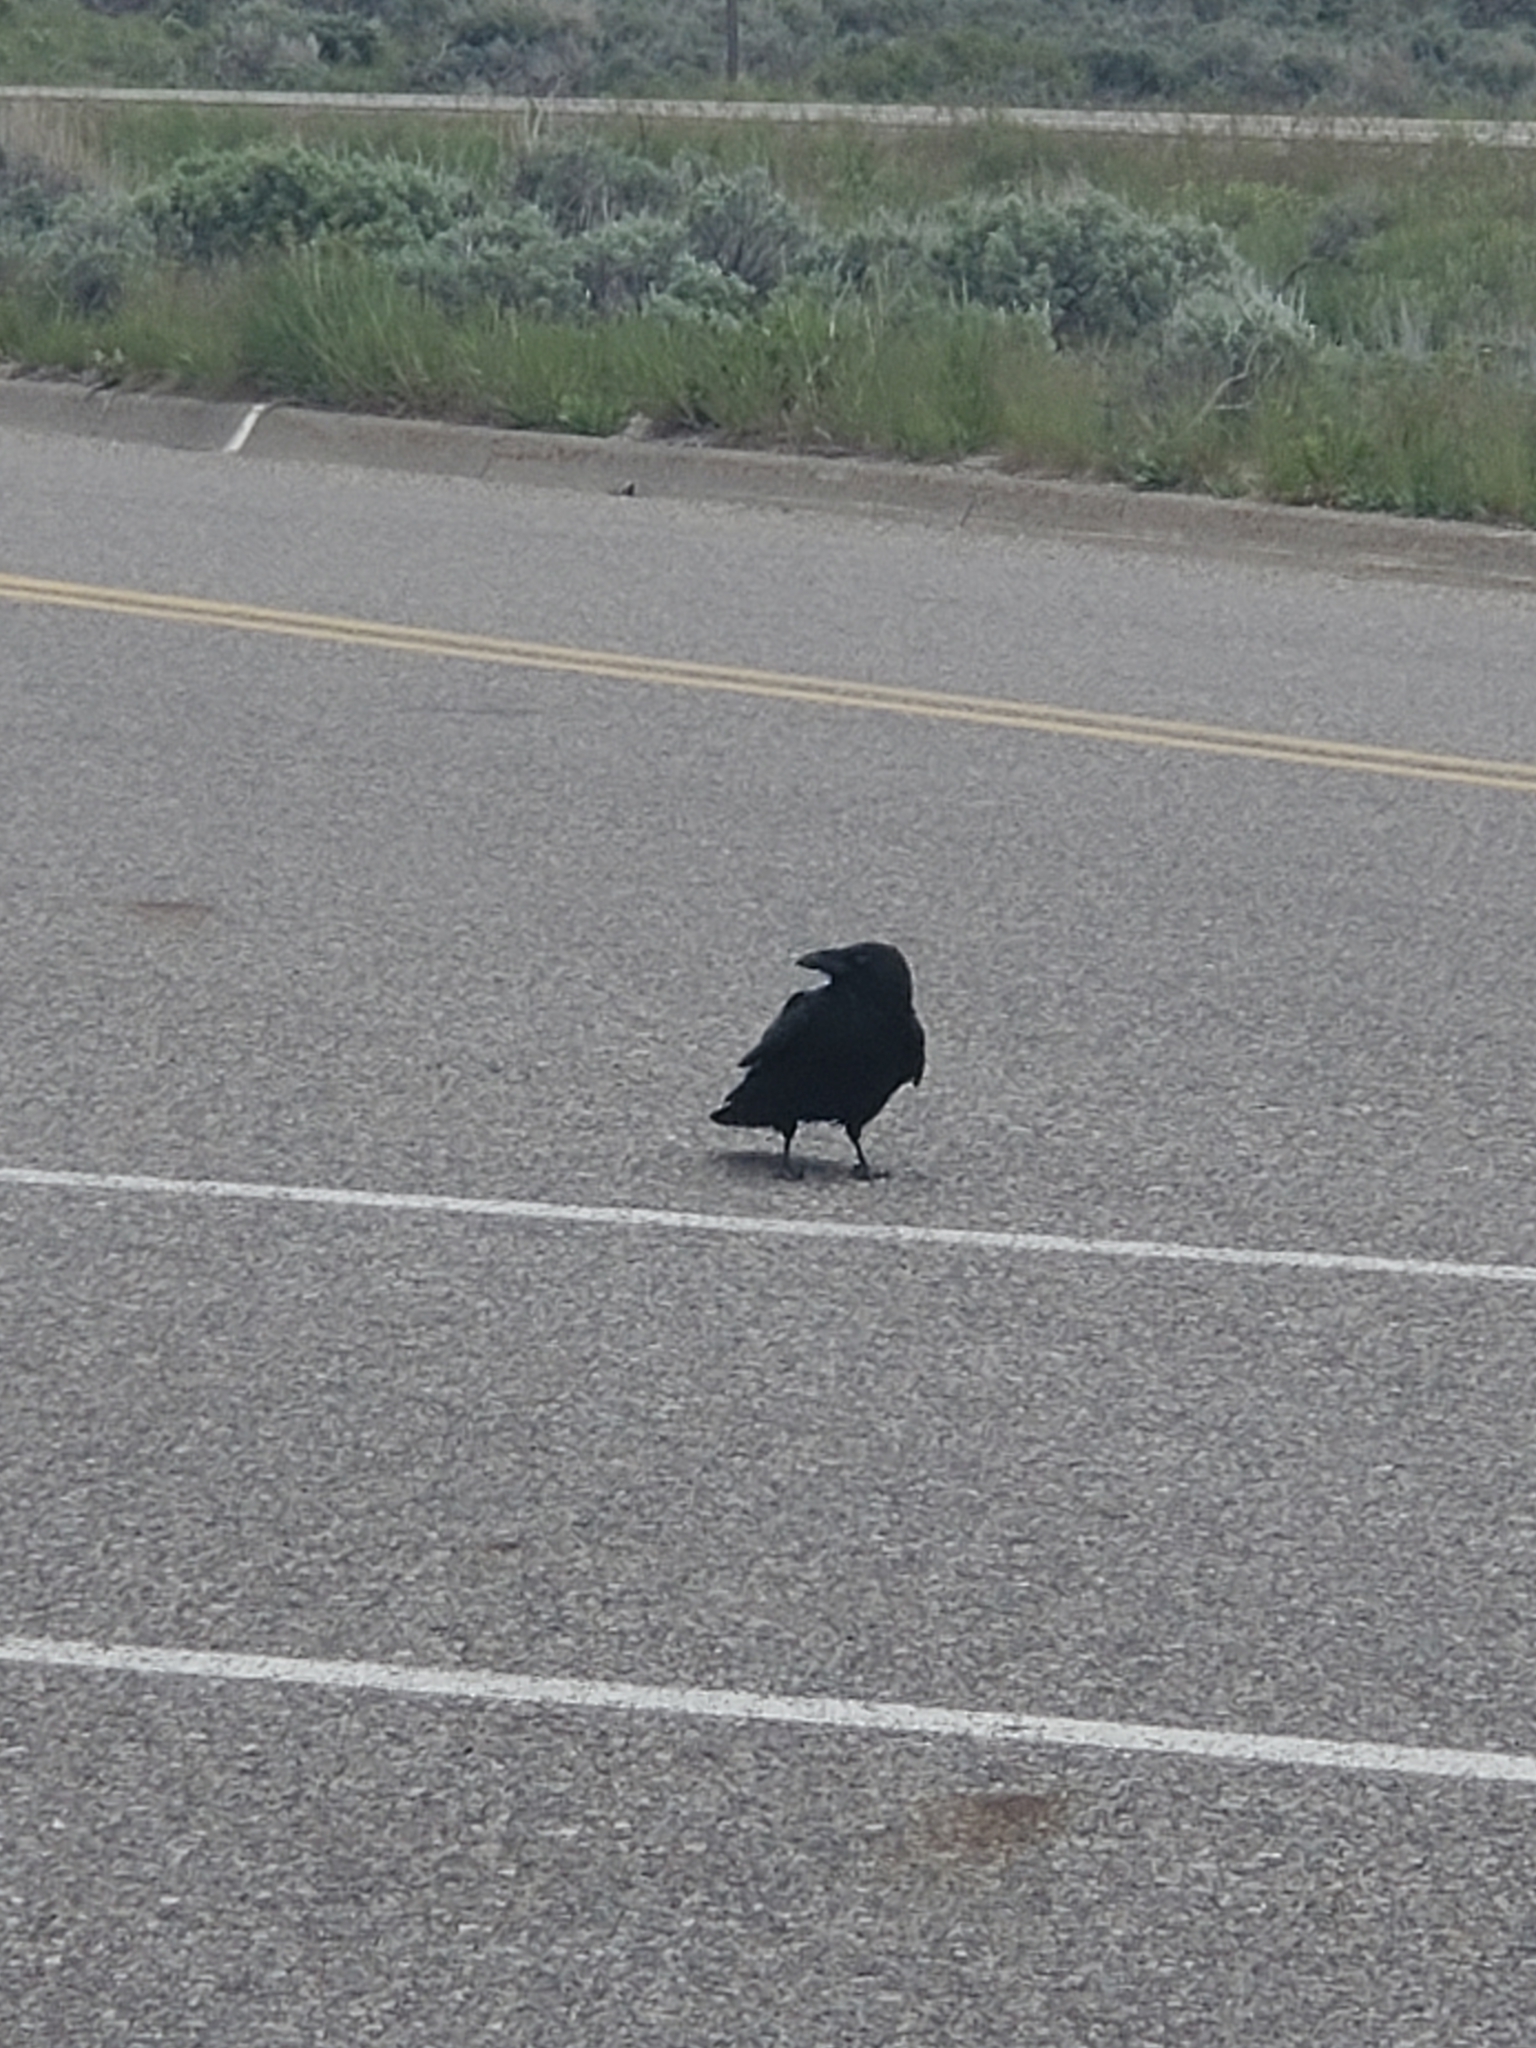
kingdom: Animalia
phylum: Chordata
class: Aves
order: Passeriformes
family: Corvidae
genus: Corvus
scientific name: Corvus corax
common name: Common raven
